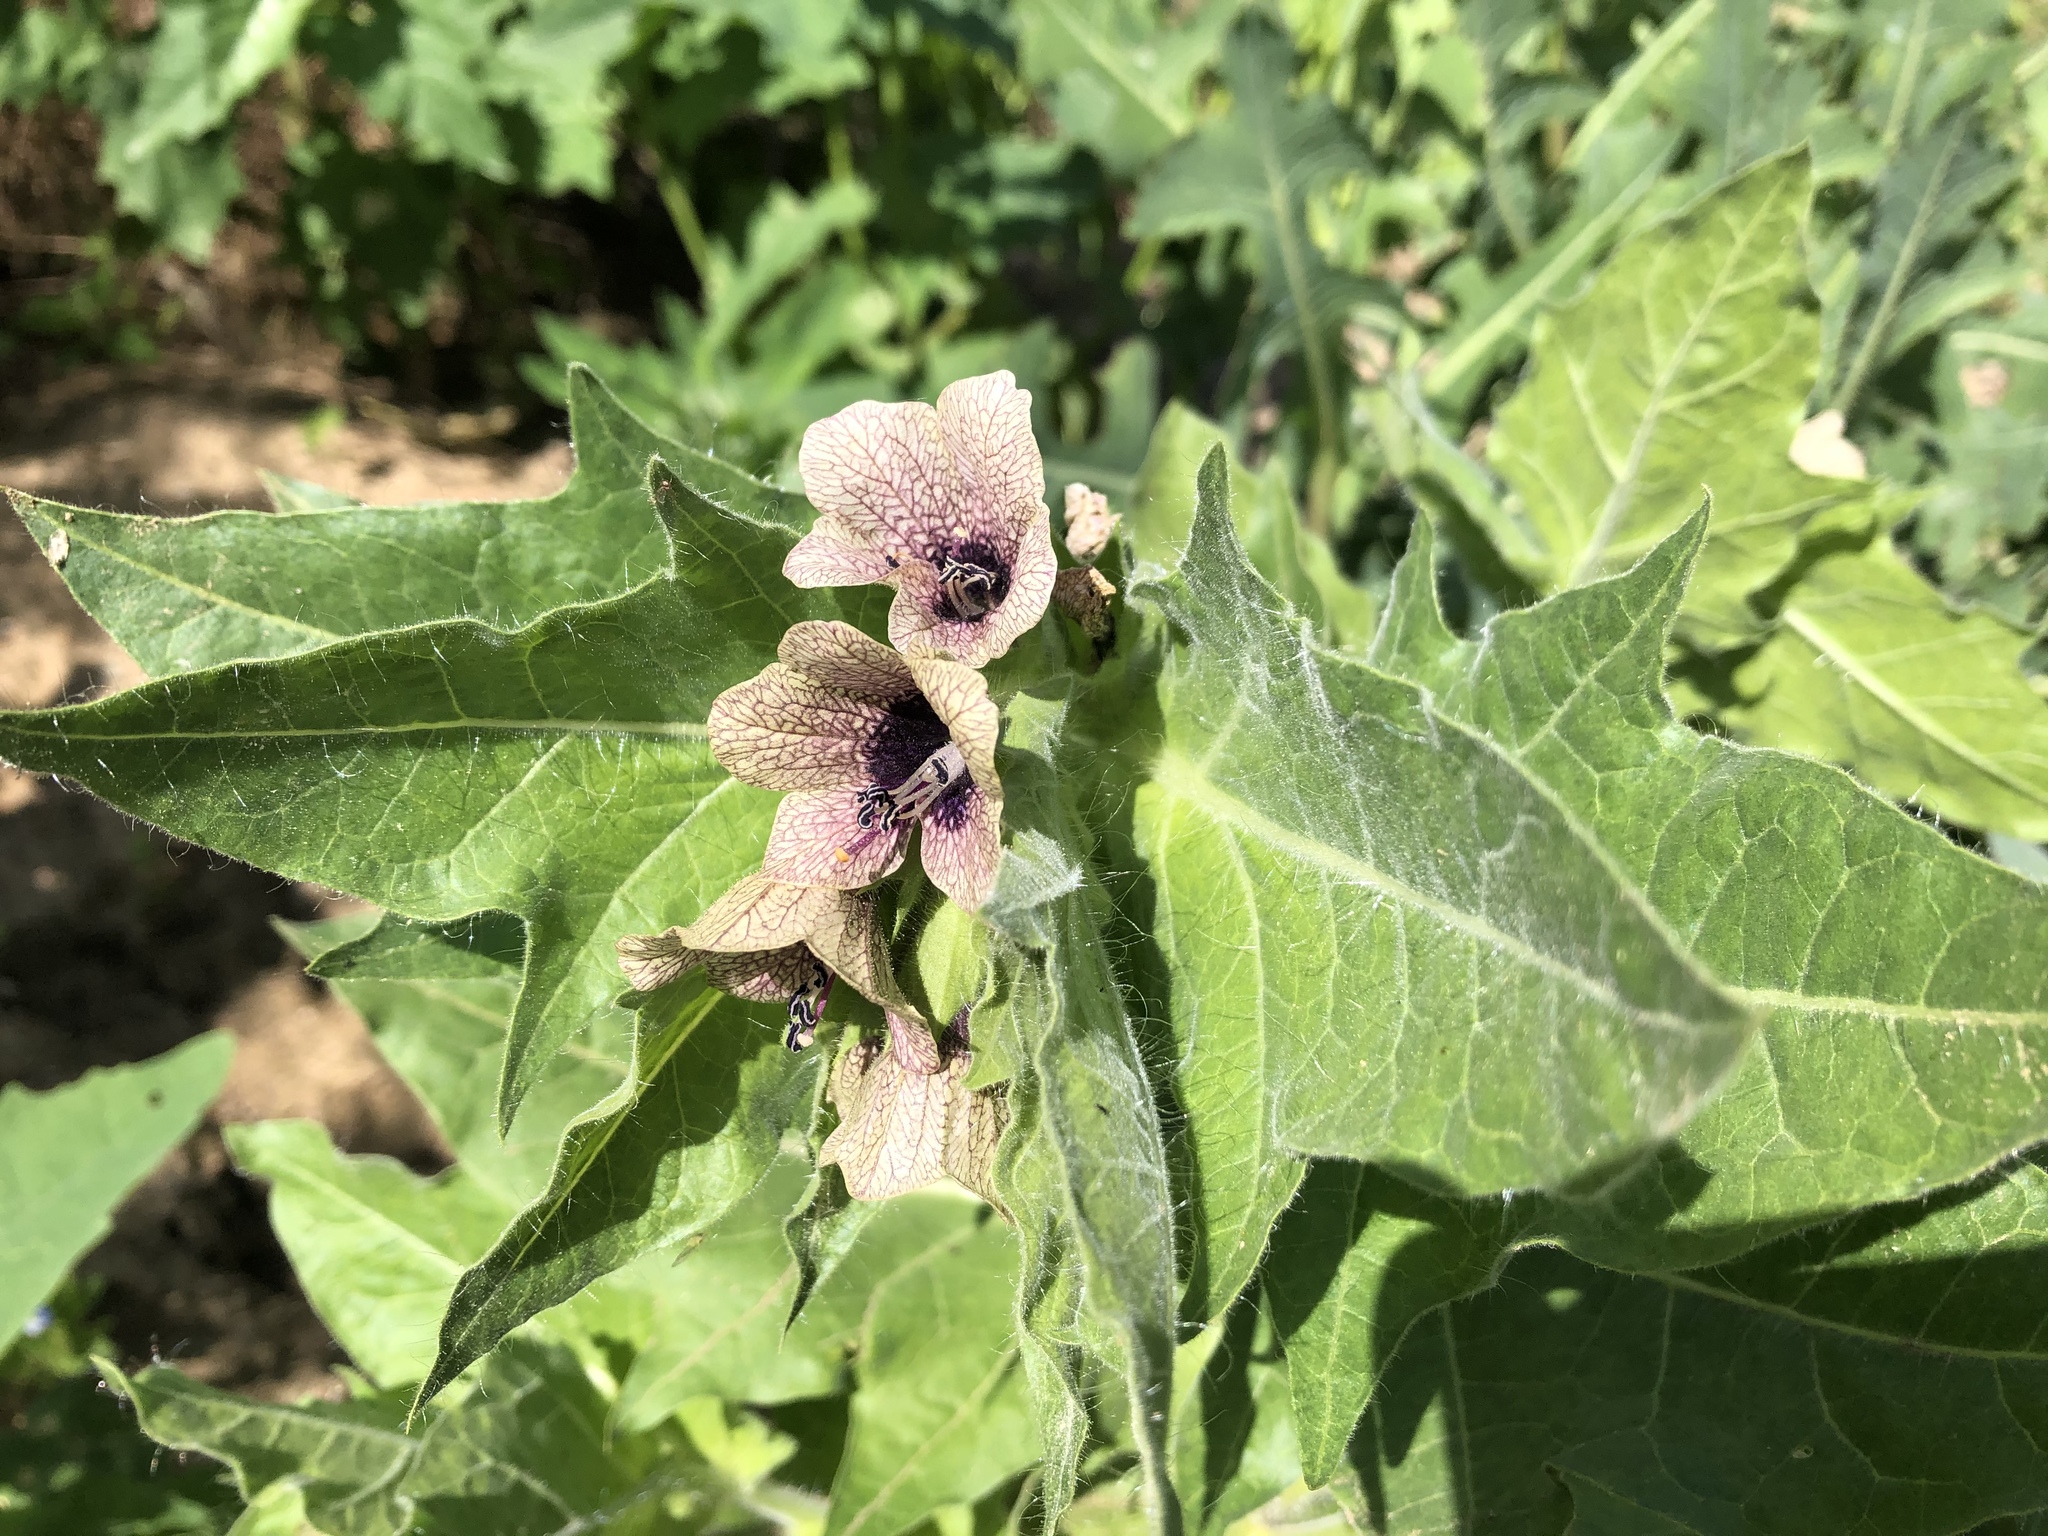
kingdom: Plantae
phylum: Tracheophyta
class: Magnoliopsida
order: Solanales
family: Solanaceae
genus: Hyoscyamus
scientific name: Hyoscyamus niger
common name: Henbane
